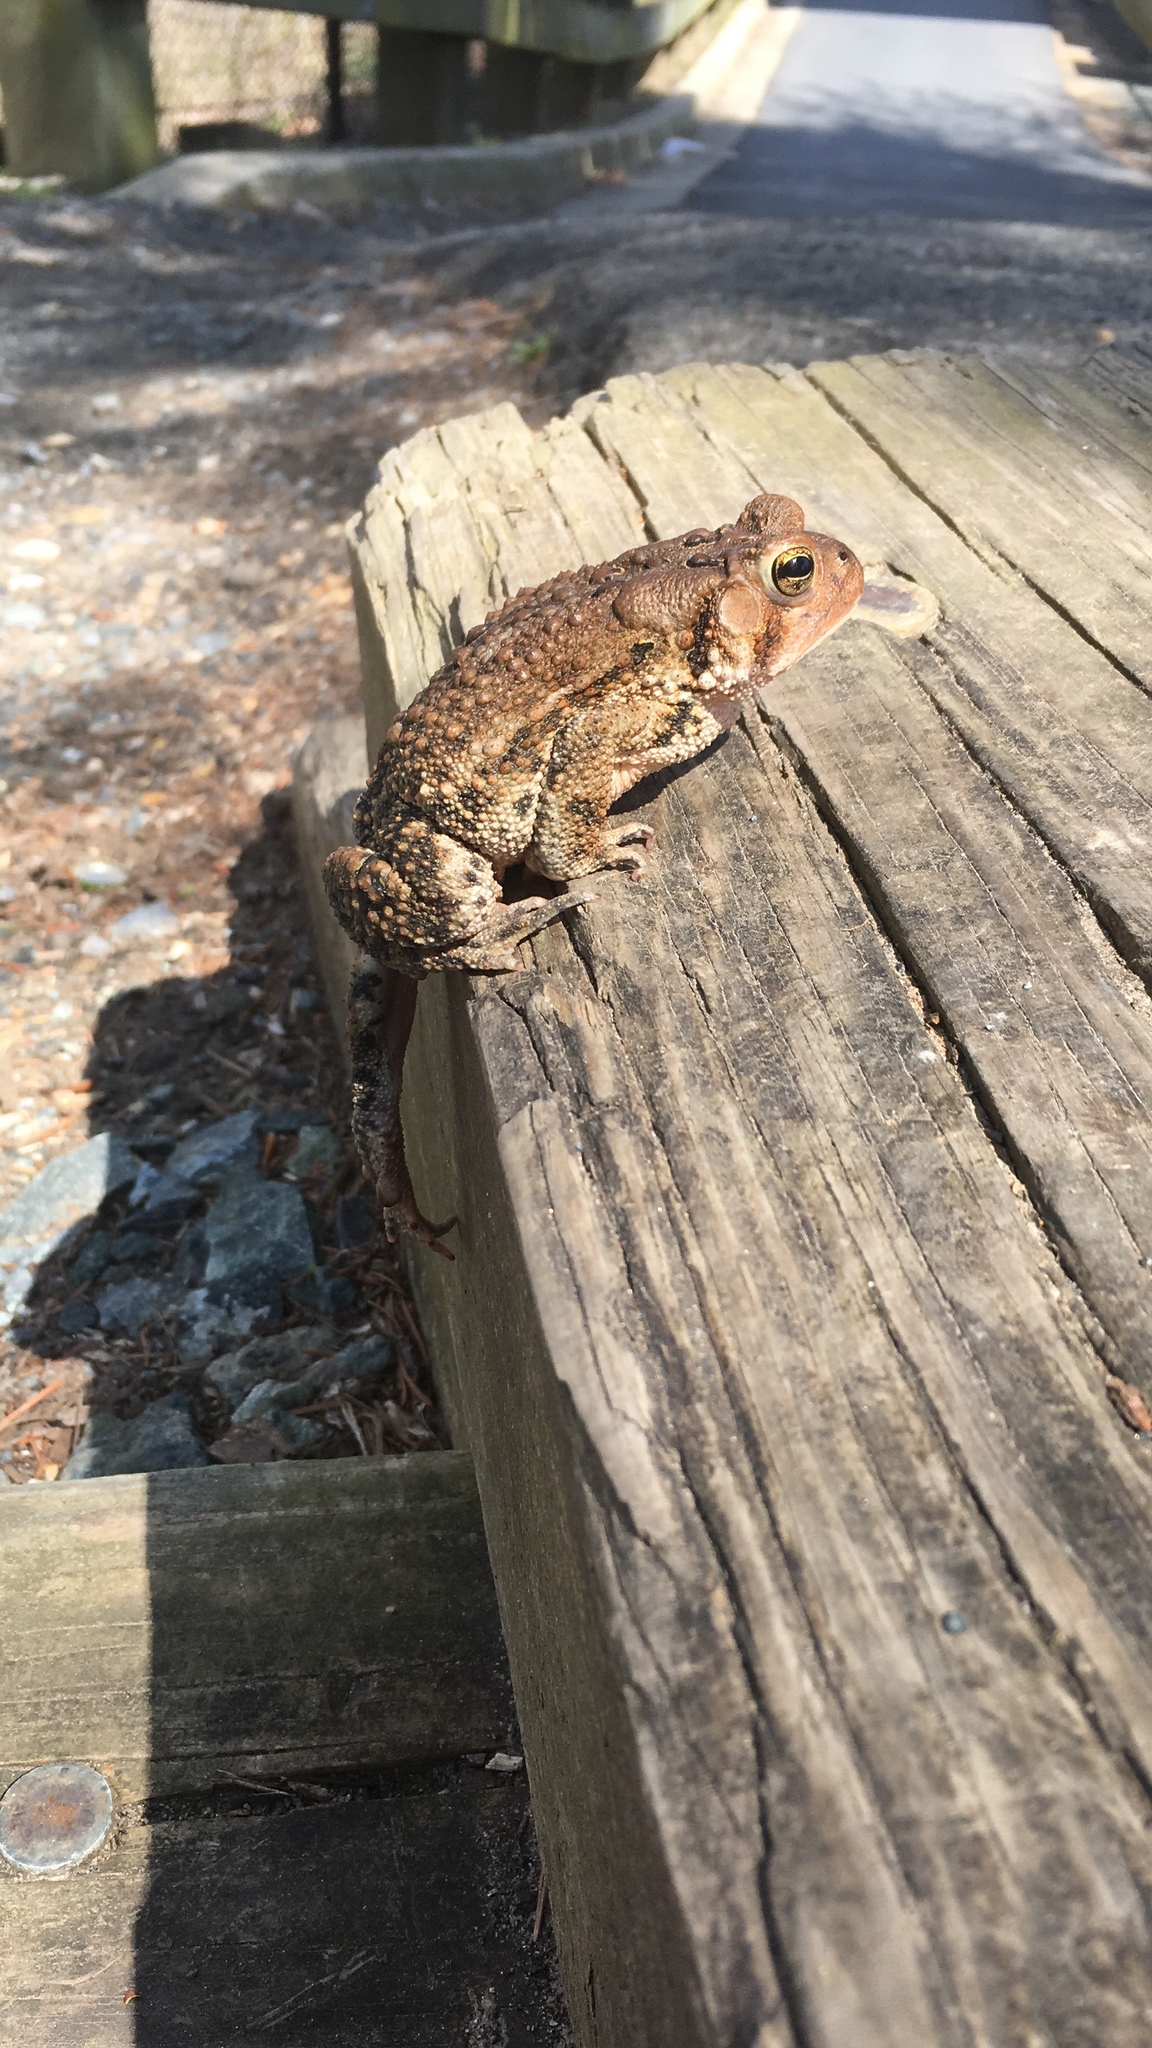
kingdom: Animalia
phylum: Chordata
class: Amphibia
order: Anura
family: Bufonidae
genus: Anaxyrus
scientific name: Anaxyrus americanus
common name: American toad
